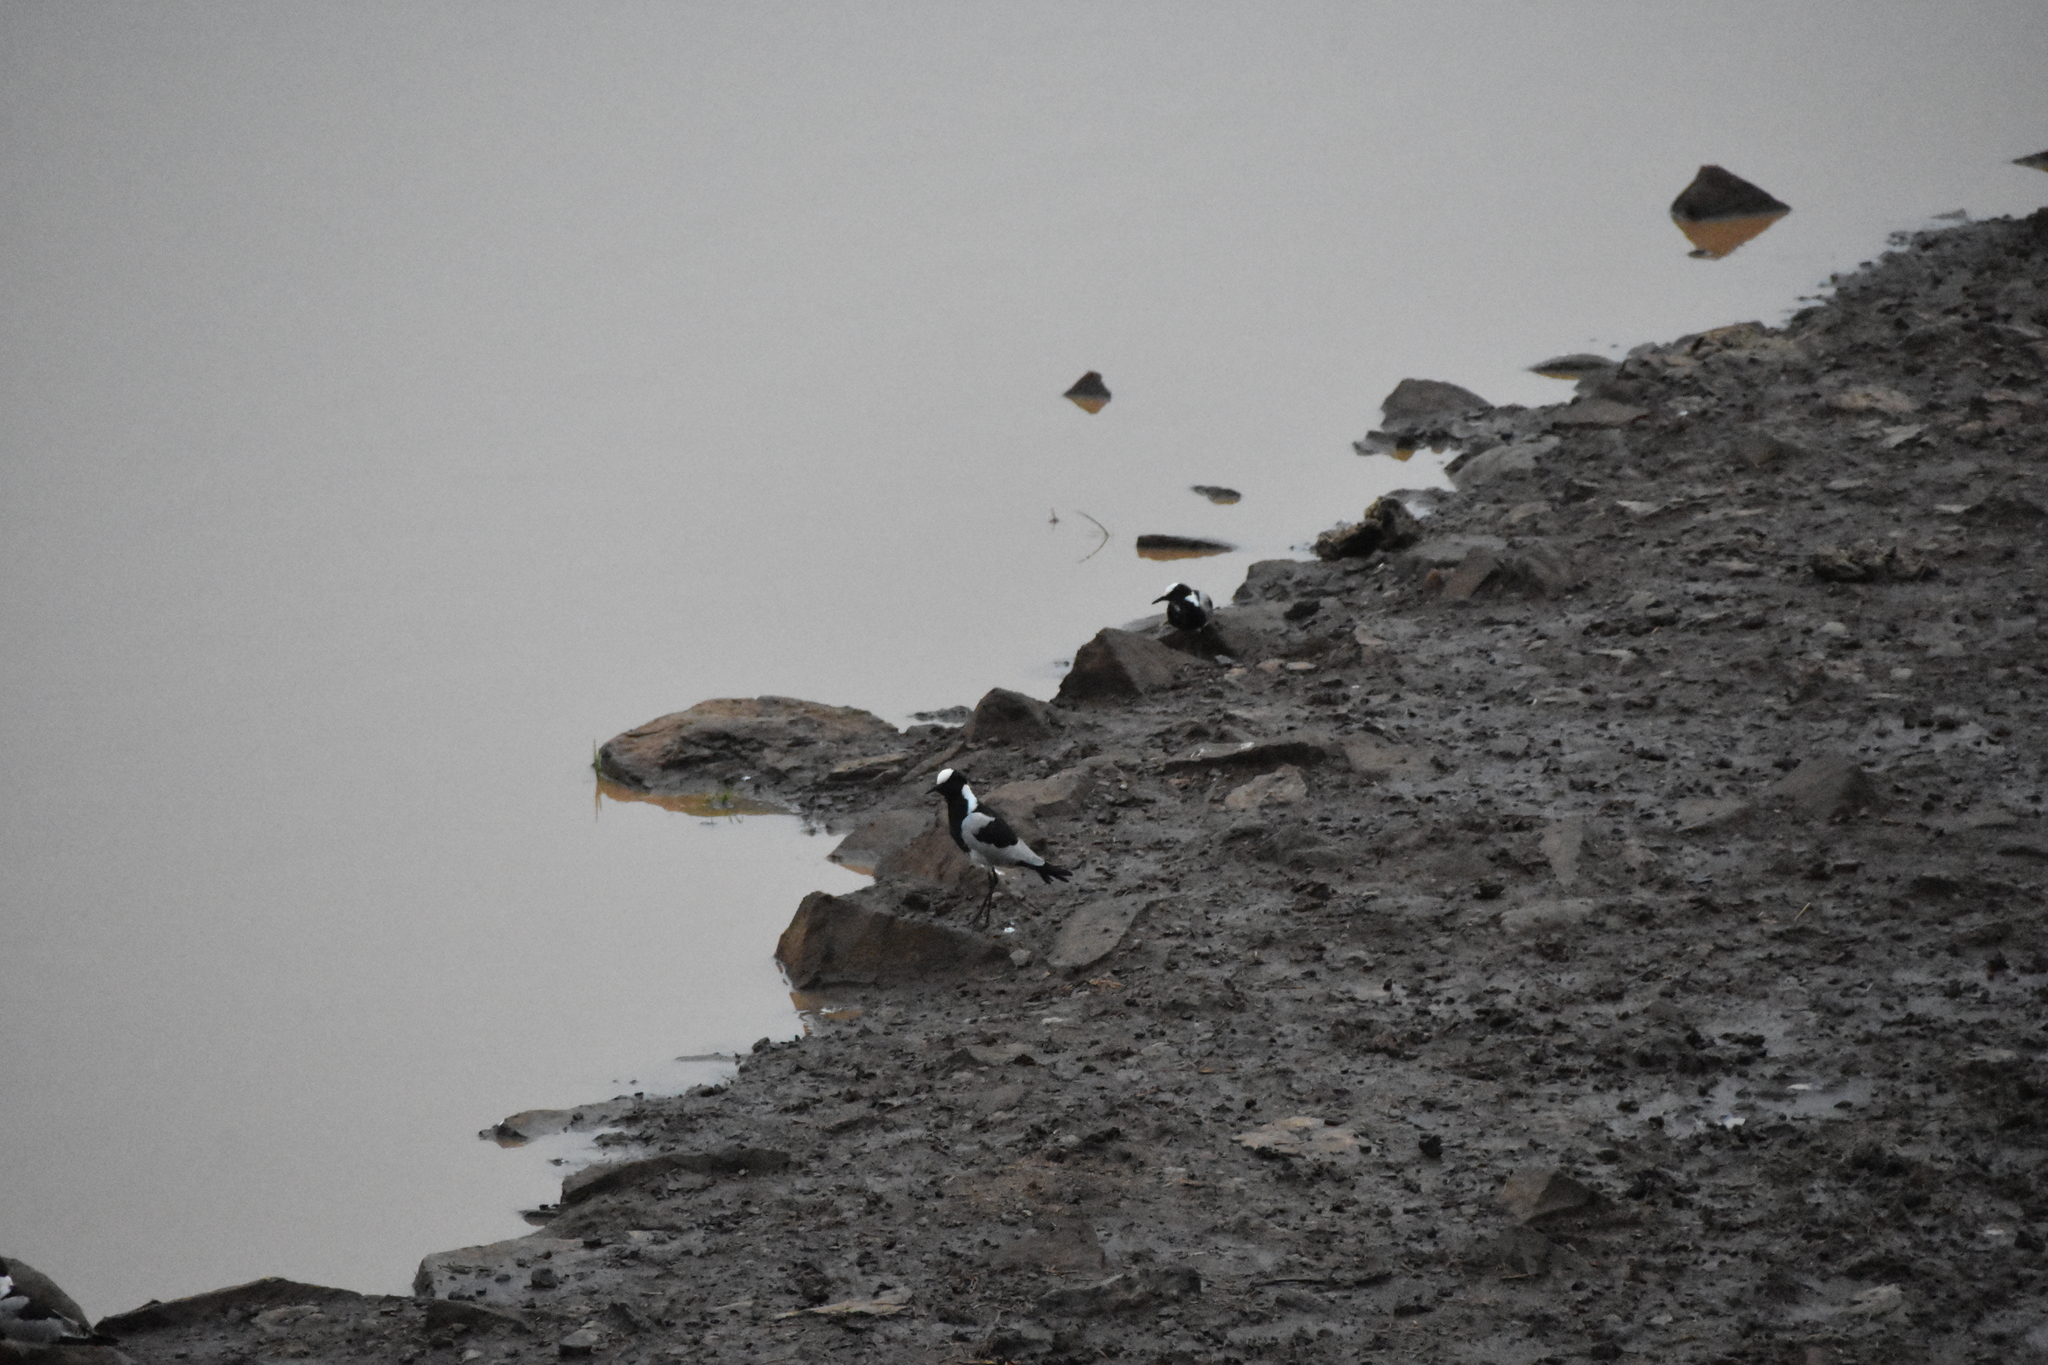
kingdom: Animalia
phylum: Chordata
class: Aves
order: Charadriiformes
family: Charadriidae
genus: Vanellus
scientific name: Vanellus armatus
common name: Blacksmith lapwing
